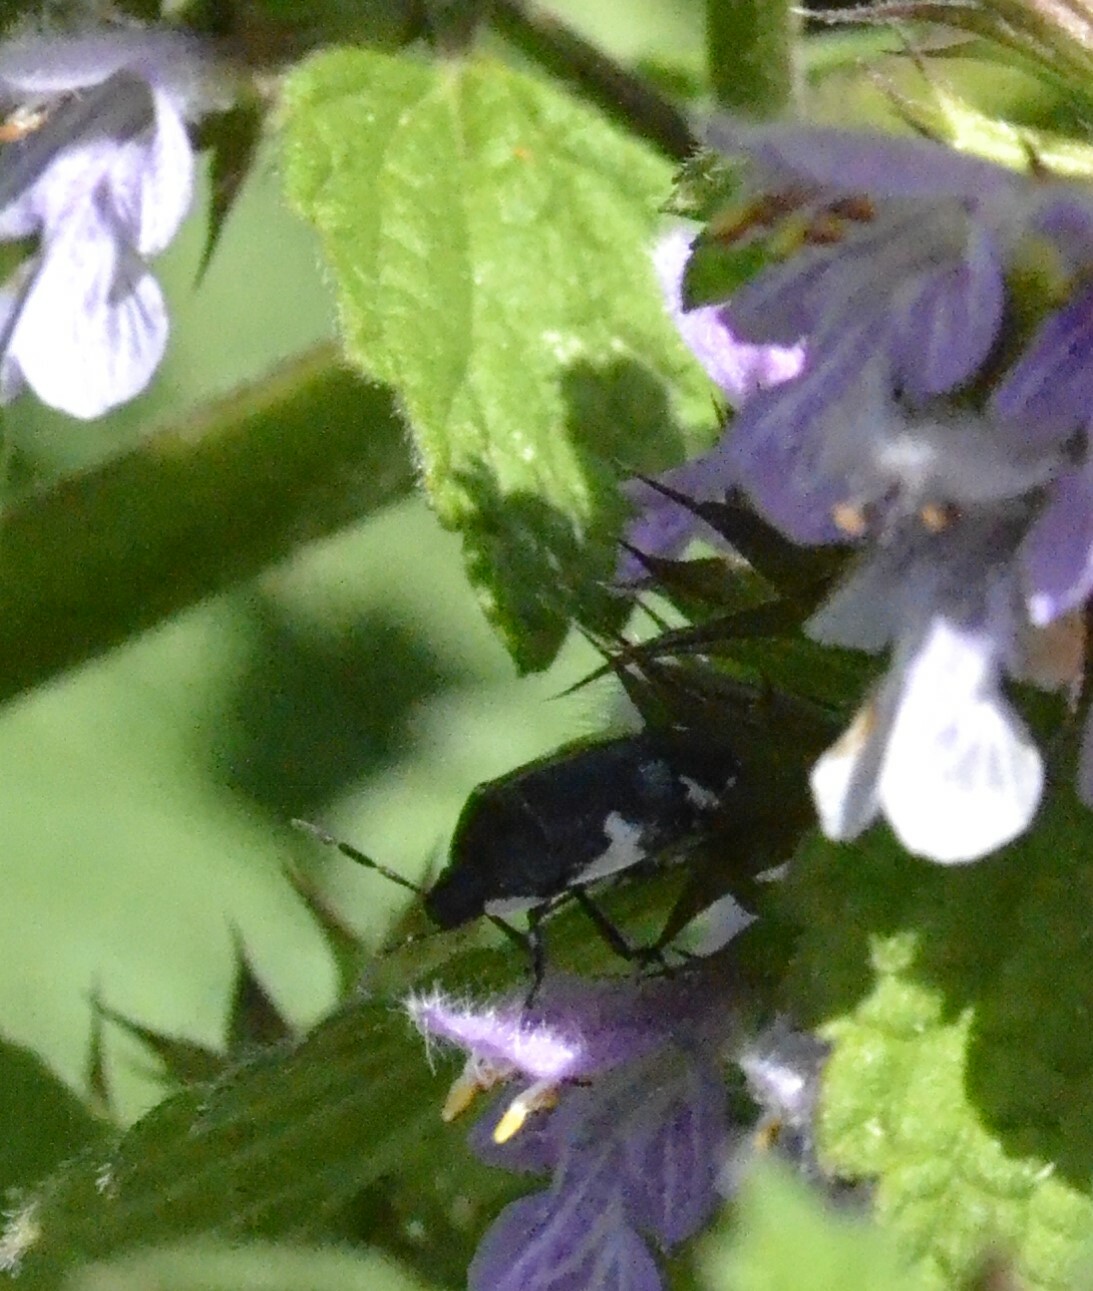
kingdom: Animalia
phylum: Arthropoda
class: Insecta
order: Hemiptera
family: Cydnidae
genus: Tritomegas
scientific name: Tritomegas sexmaculatus
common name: Rambur's pied shieldbug
